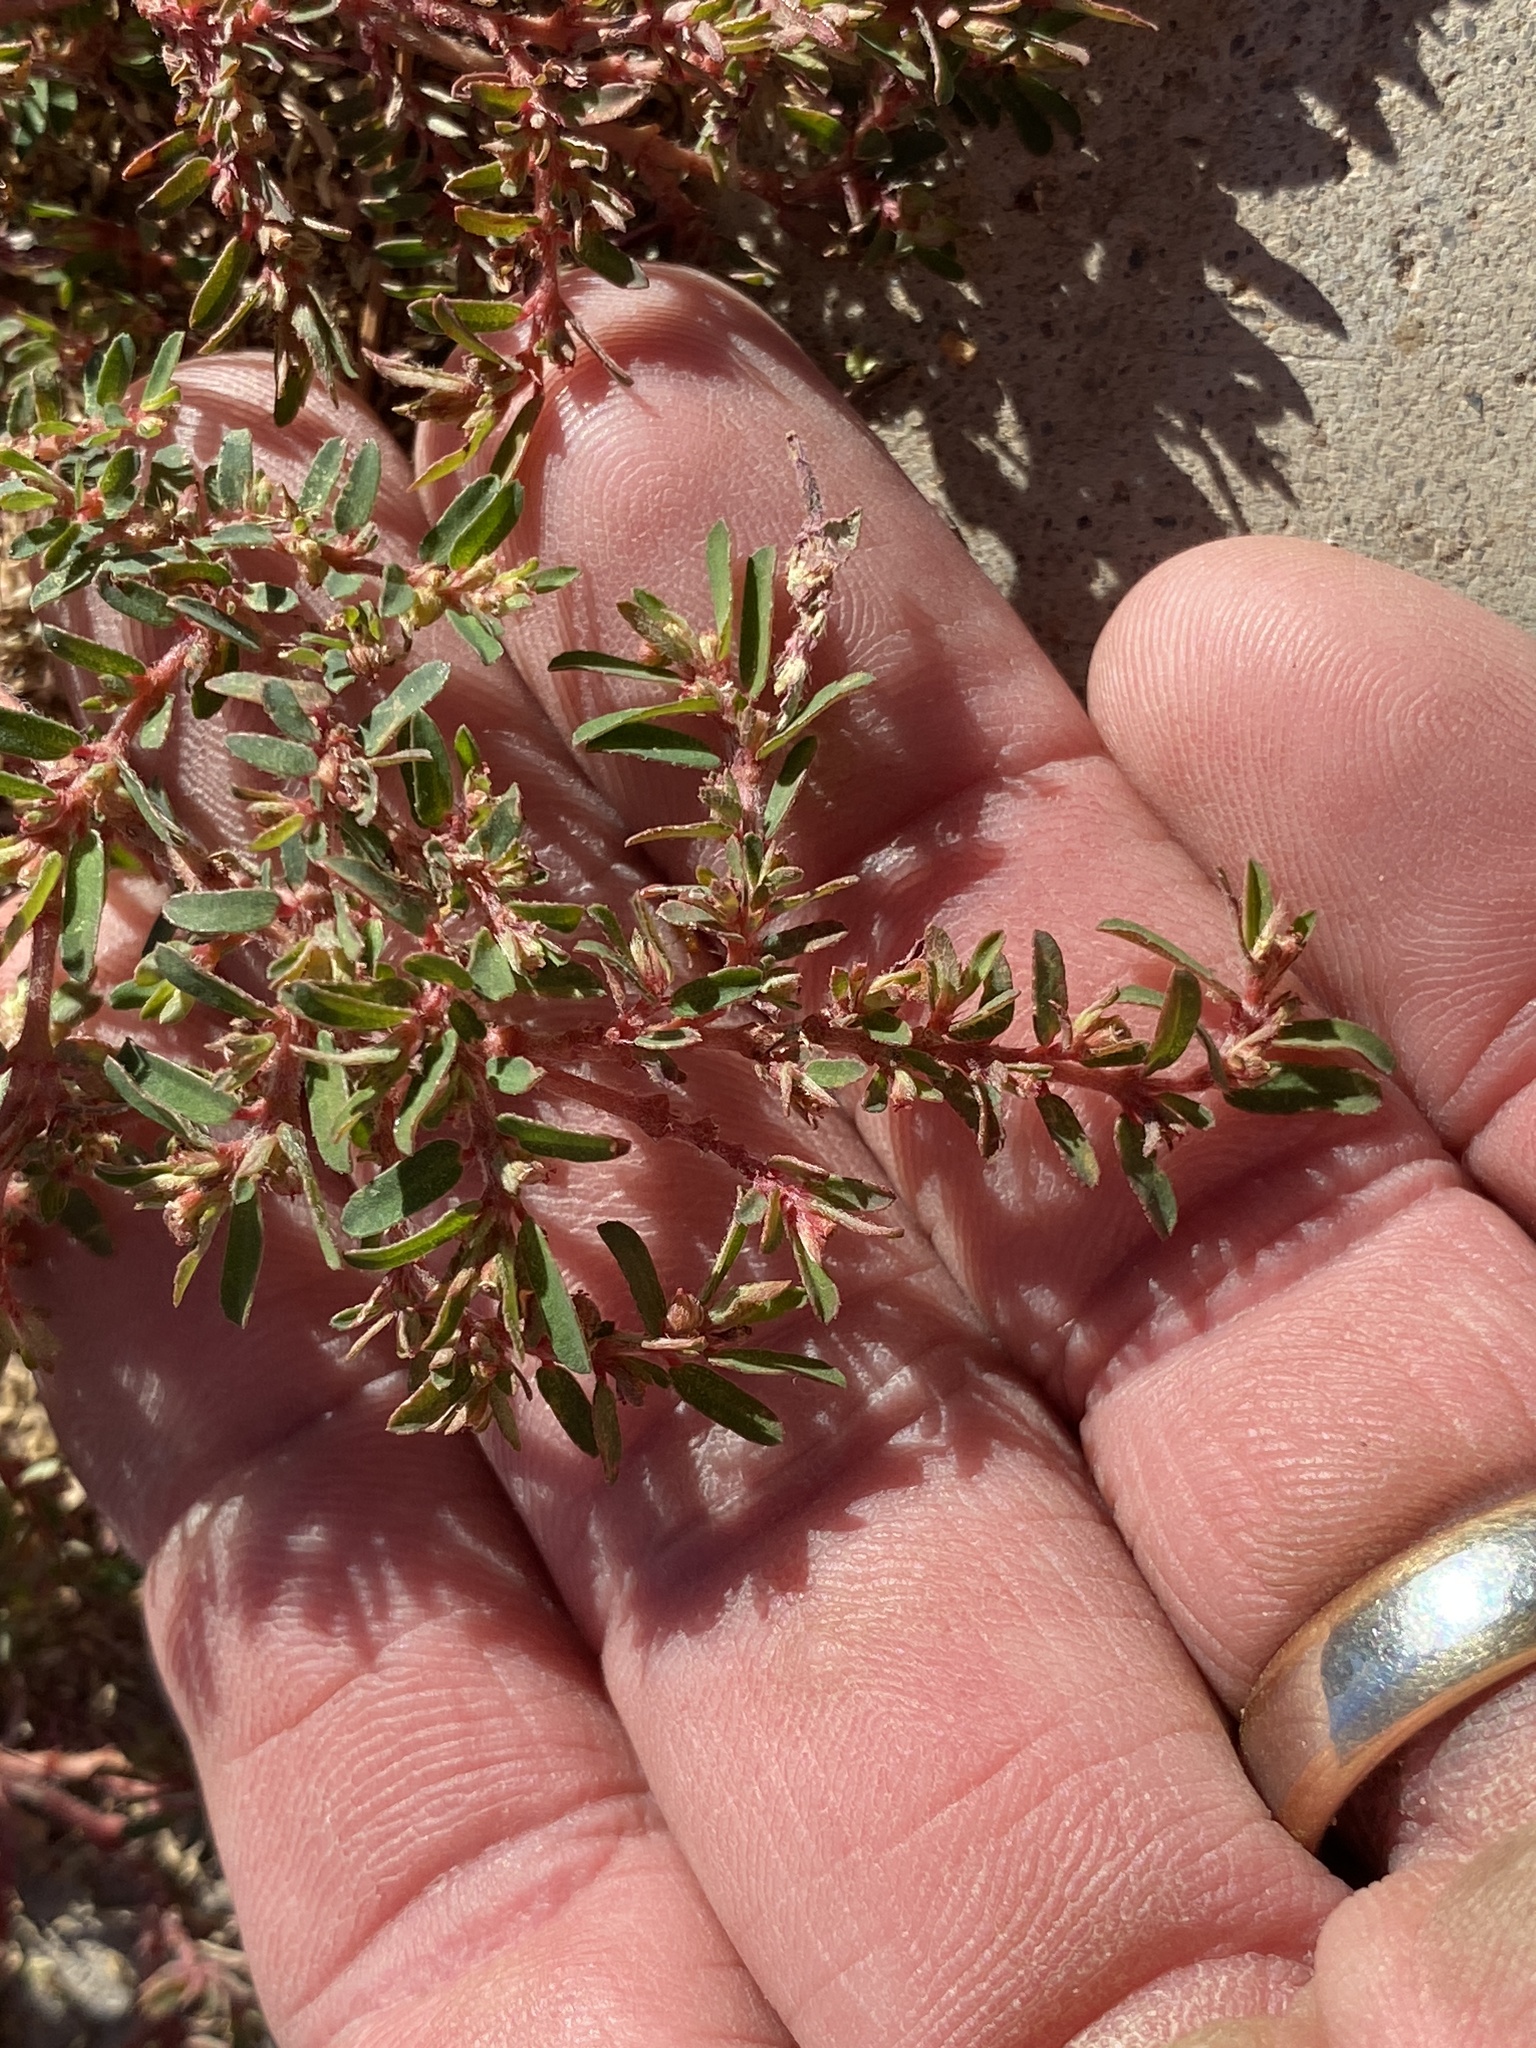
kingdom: Plantae
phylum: Tracheophyta
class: Magnoliopsida
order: Malpighiales
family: Euphorbiaceae
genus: Euphorbia
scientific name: Euphorbia maculata
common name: Spotted spurge
